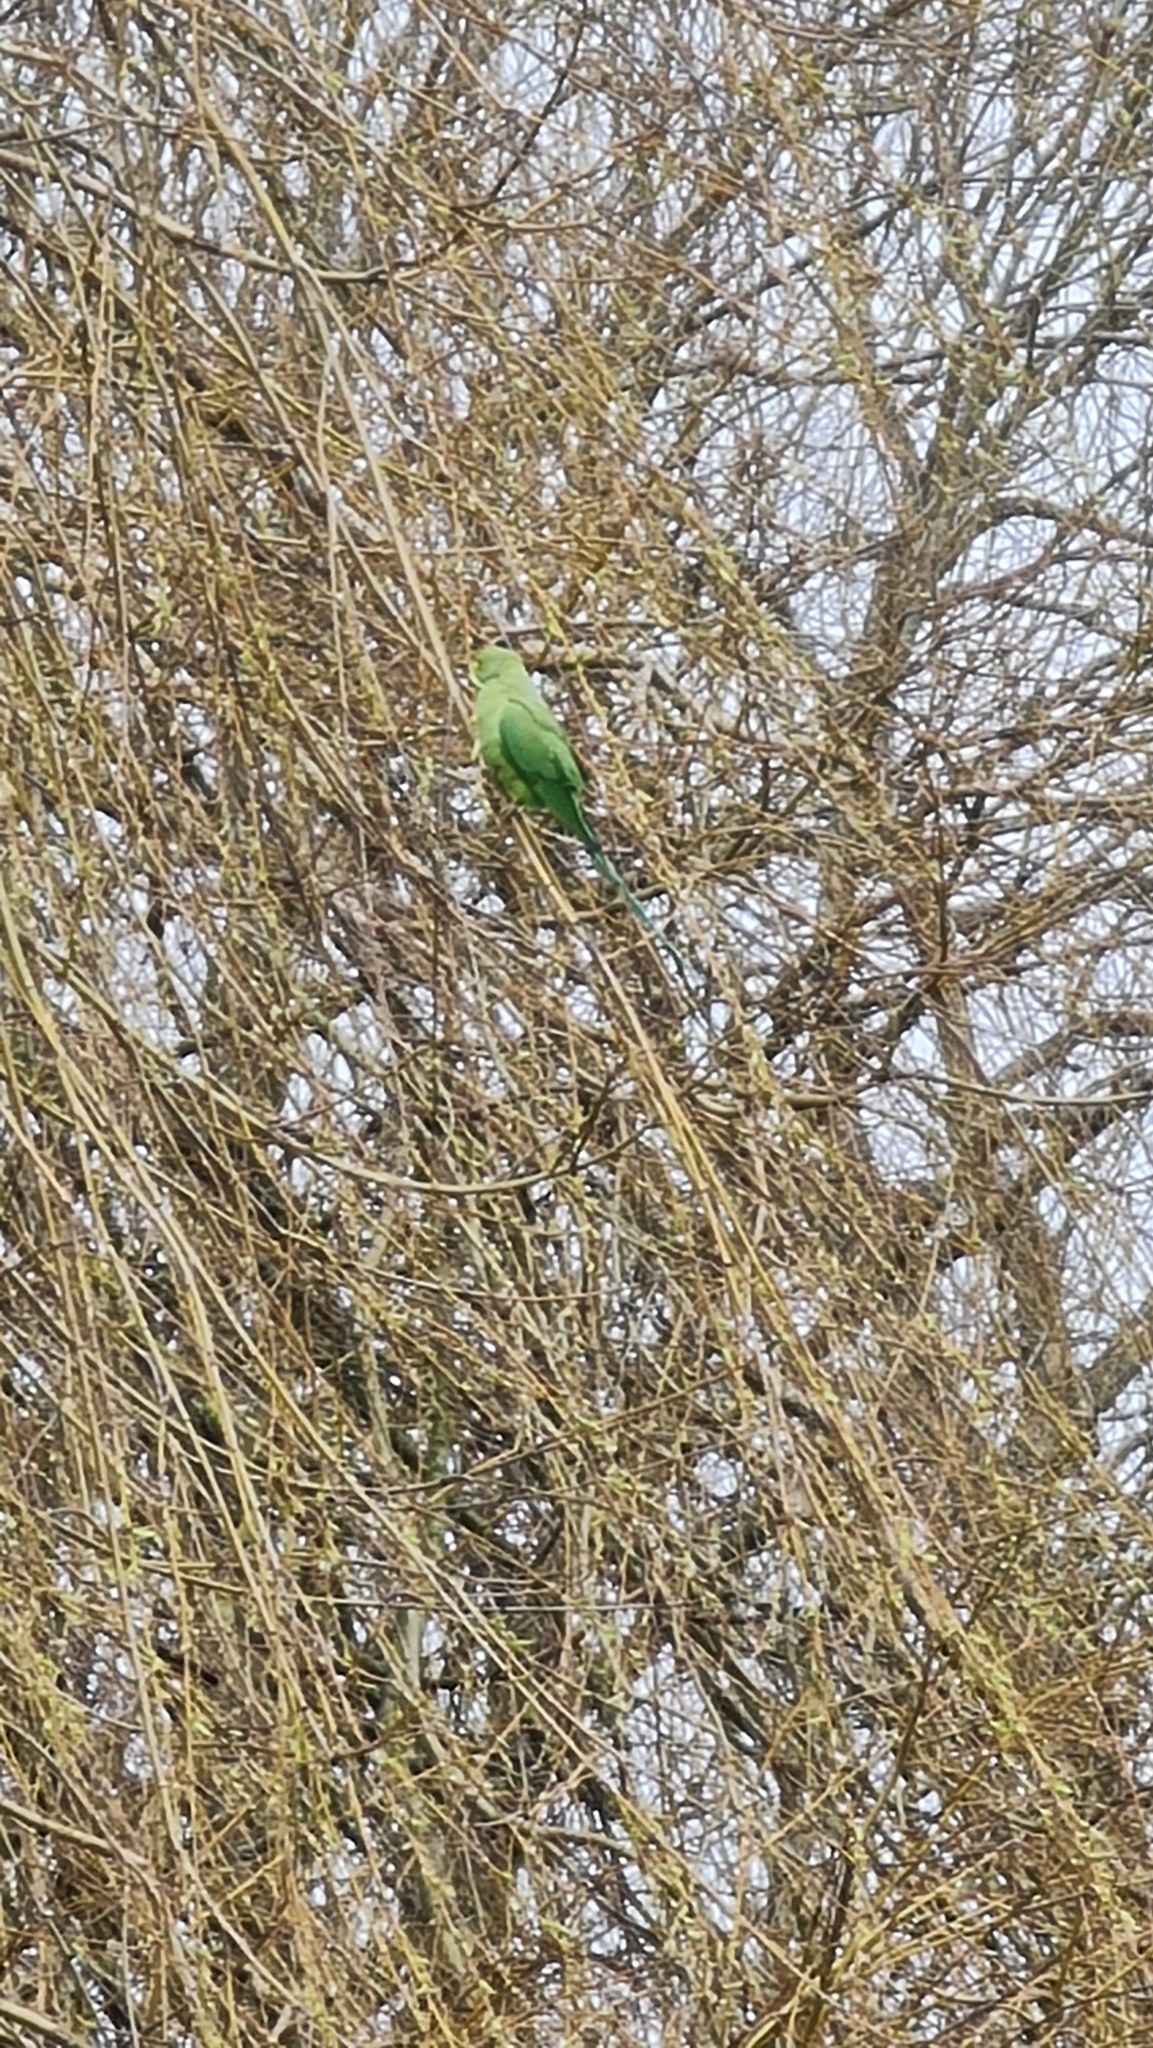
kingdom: Animalia
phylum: Chordata
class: Aves
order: Psittaciformes
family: Psittacidae
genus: Psittacula
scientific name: Psittacula krameri
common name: Rose-ringed parakeet
